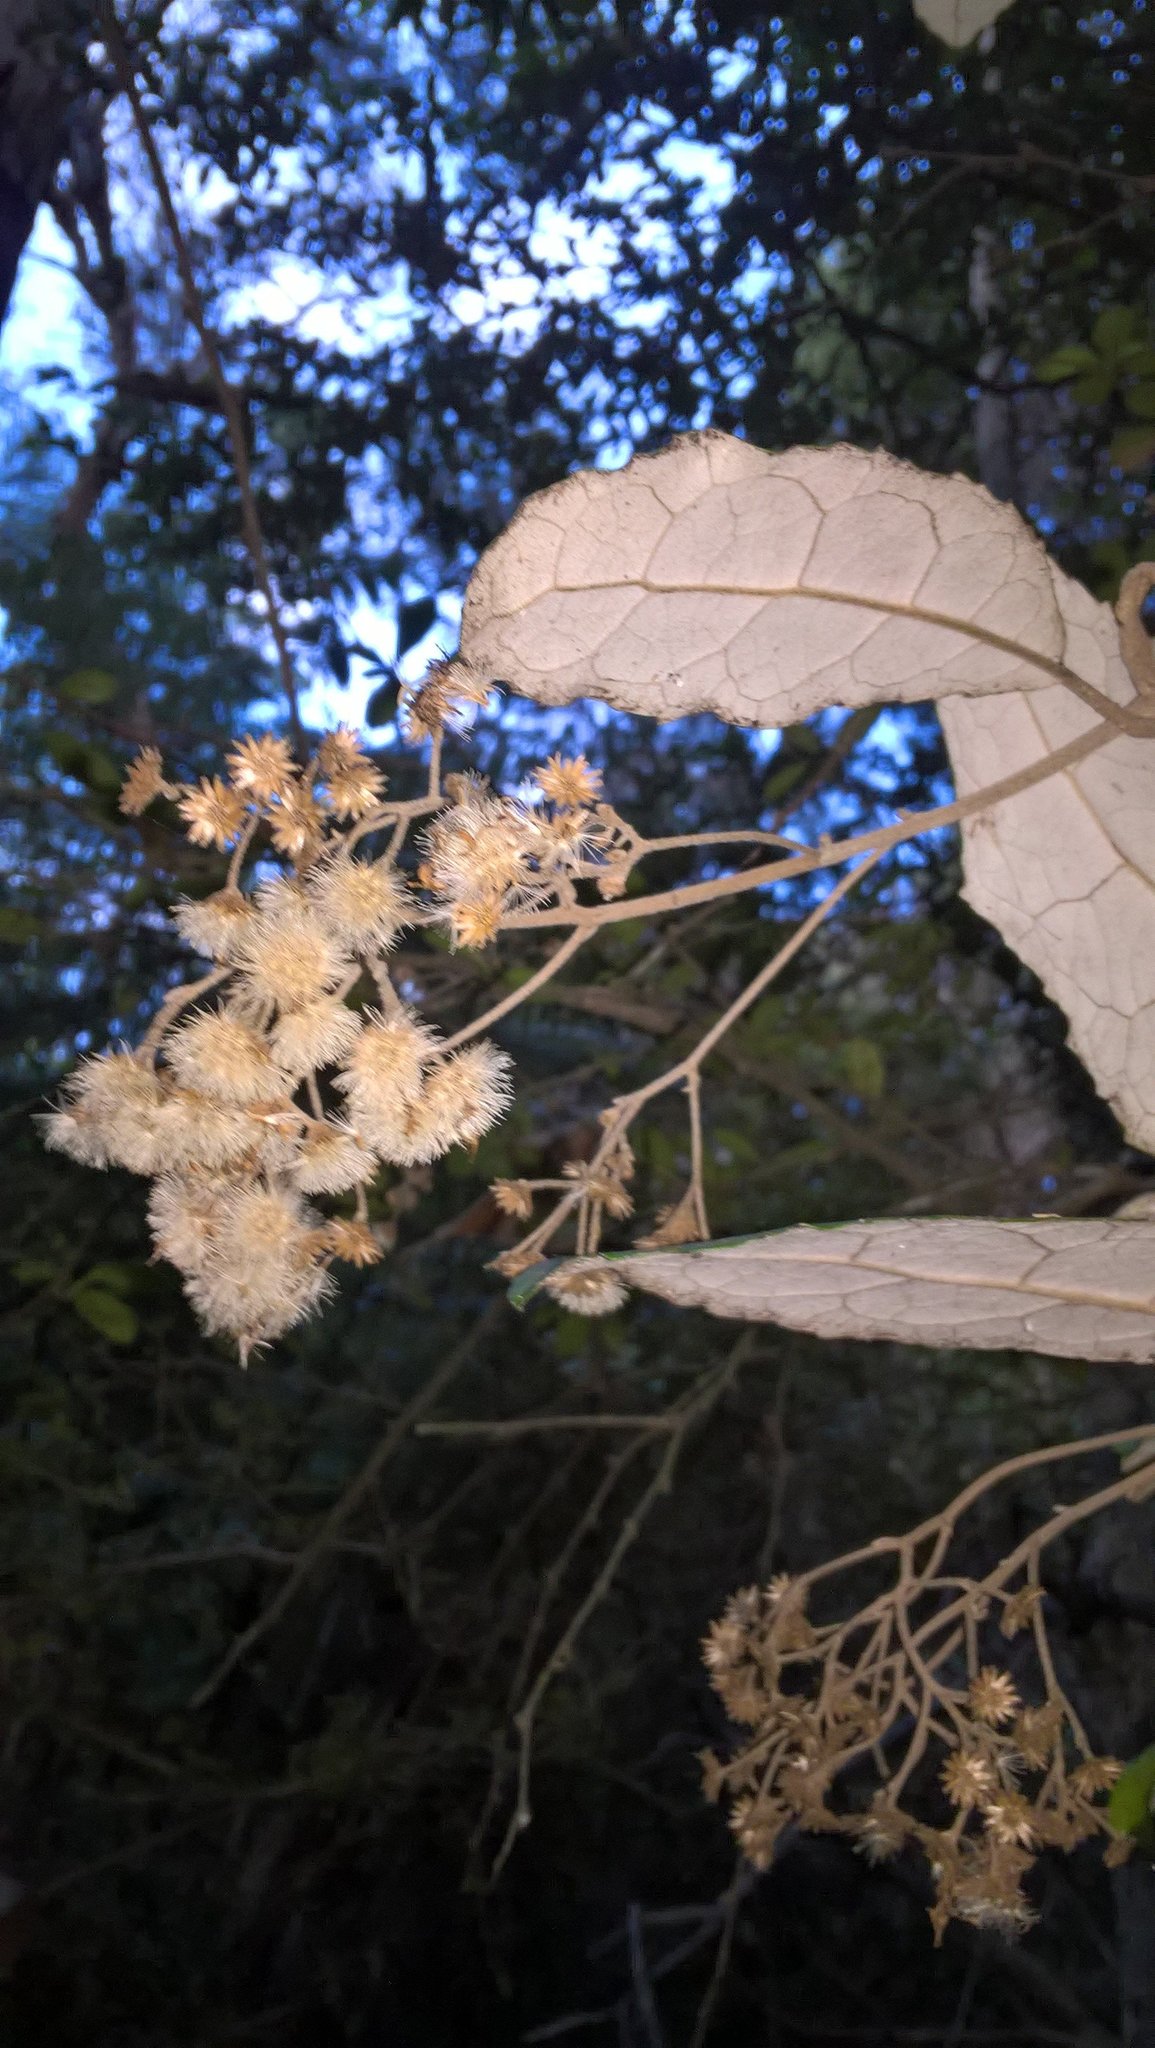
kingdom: Plantae
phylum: Tracheophyta
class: Magnoliopsida
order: Asterales
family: Asteraceae
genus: Olearia
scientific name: Olearia rani
